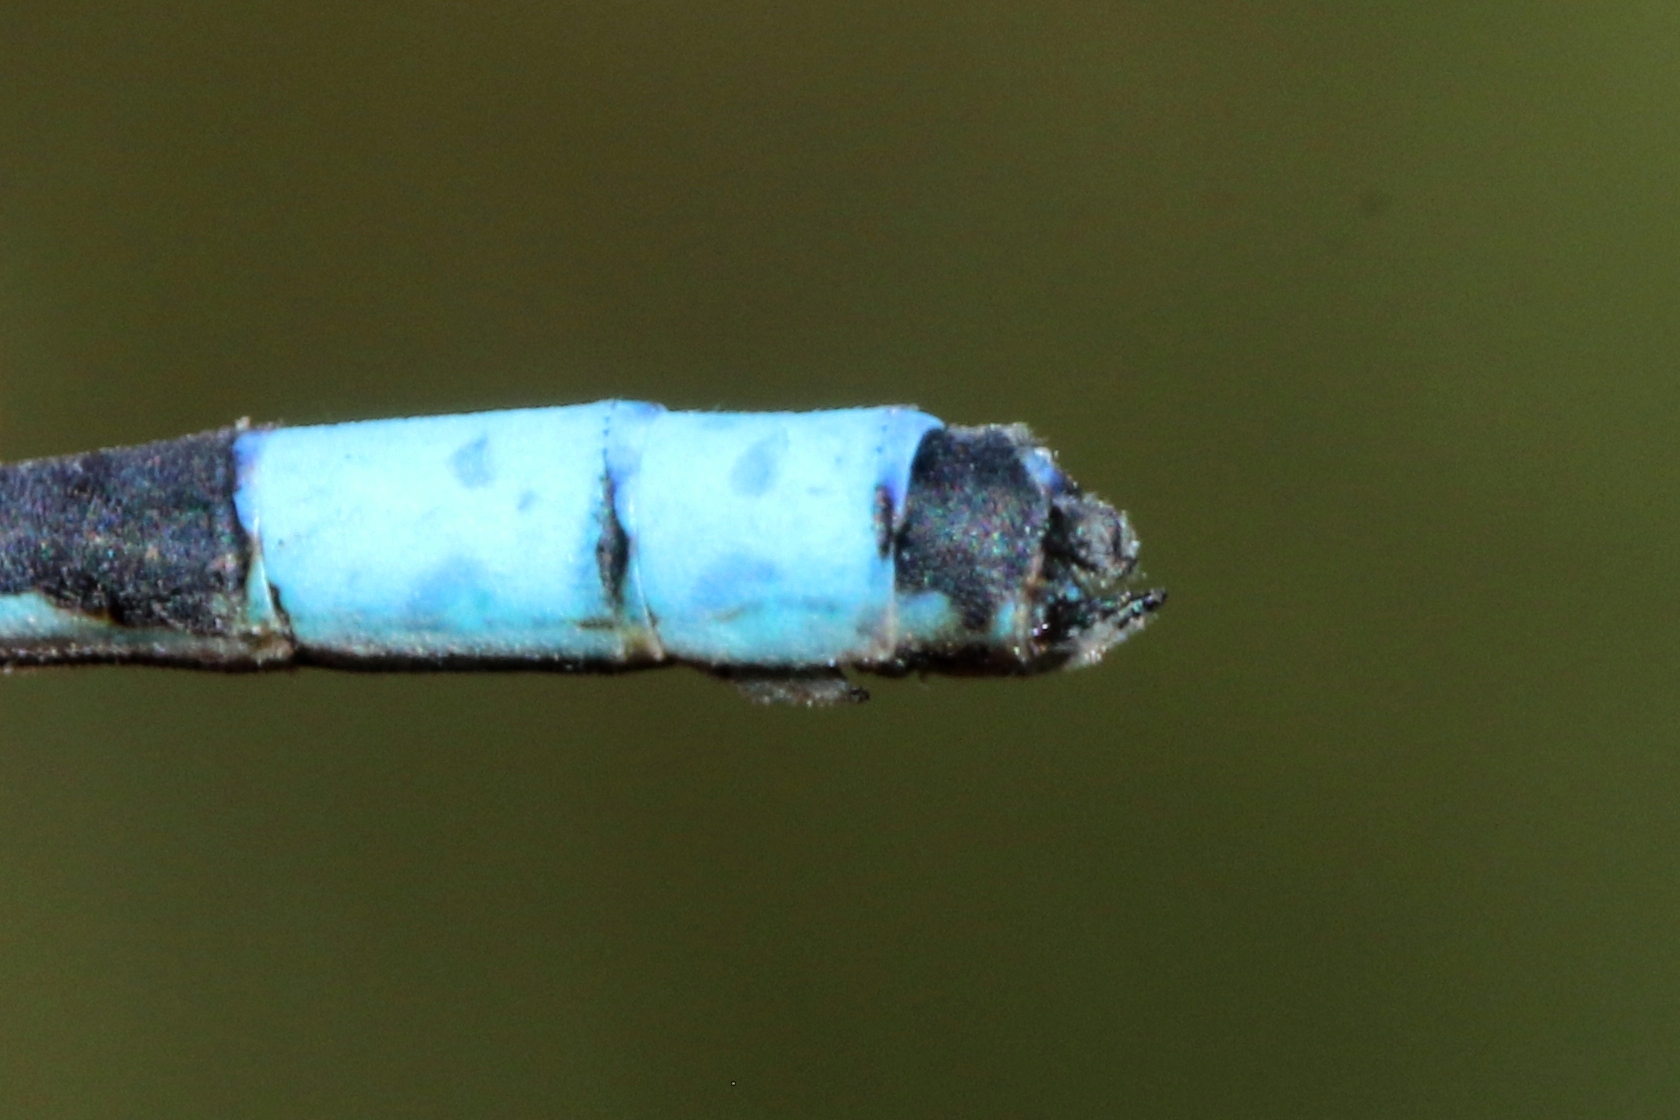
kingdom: Animalia
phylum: Arthropoda
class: Insecta
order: Odonata
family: Coenagrionidae
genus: Enallagma
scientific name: Enallagma annexum
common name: Northern bluet
